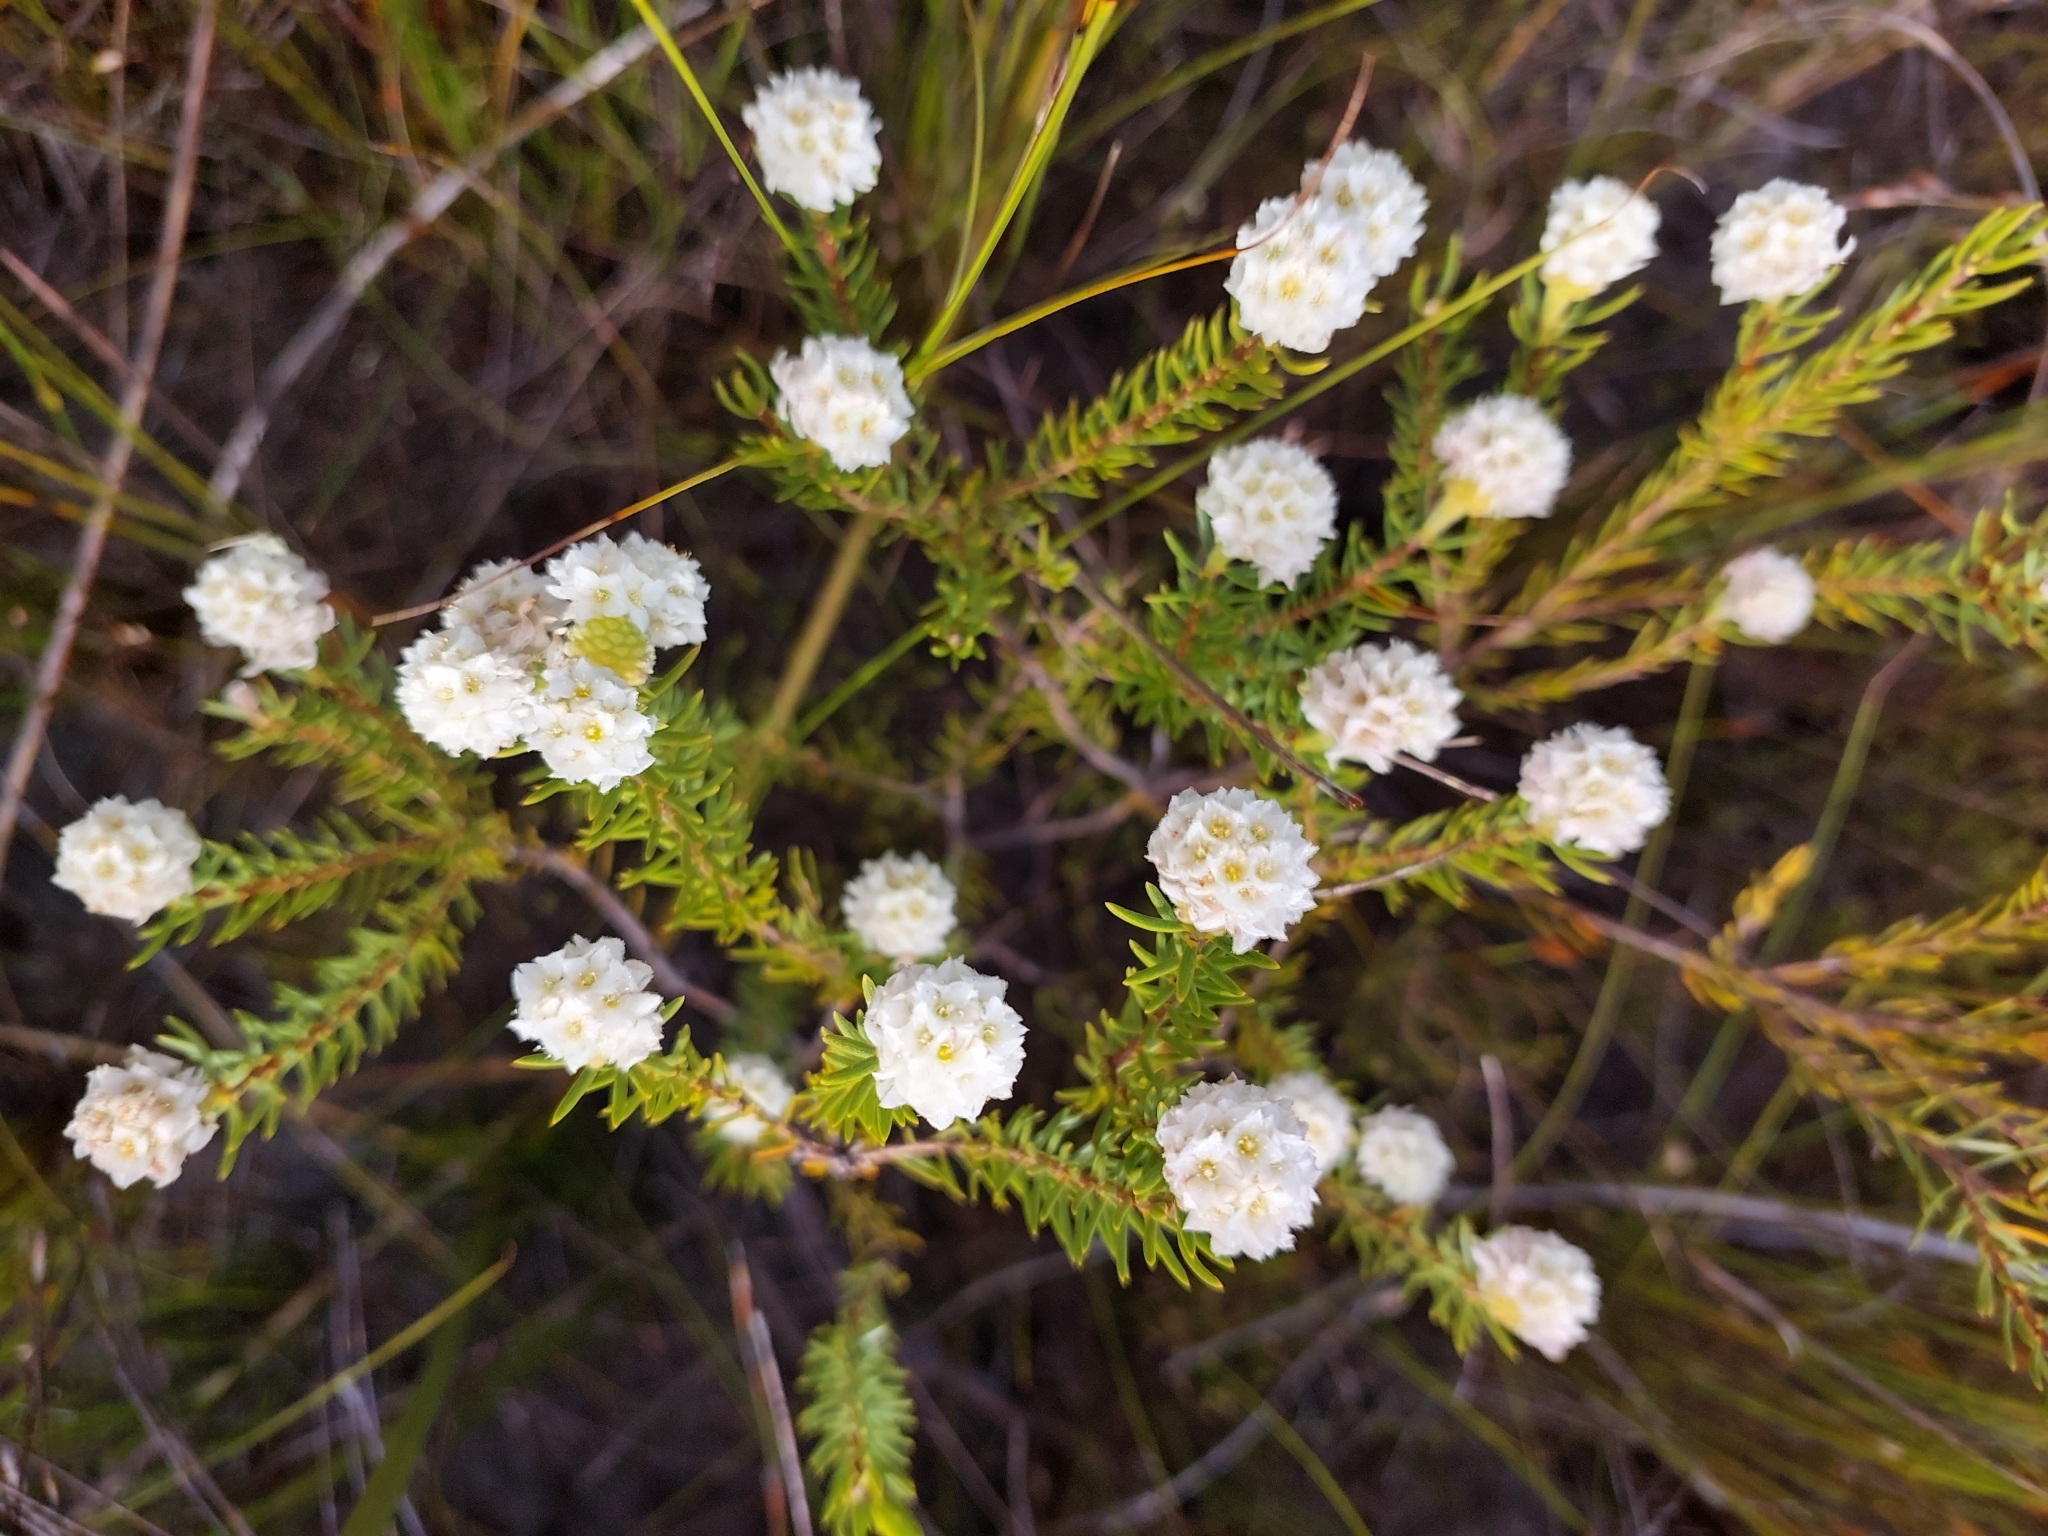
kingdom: Plantae
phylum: Tracheophyta
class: Magnoliopsida
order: Malvales
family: Thymelaeaceae
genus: Lachnaea
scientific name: Lachnaea densiflora
